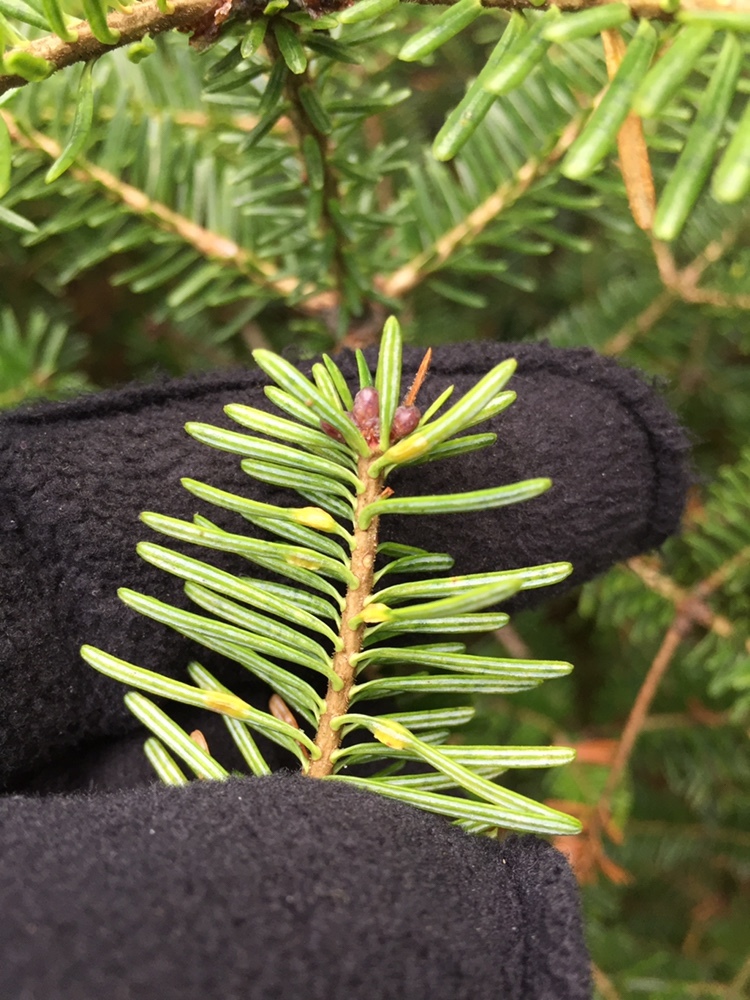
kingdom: Animalia
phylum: Arthropoda
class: Insecta
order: Diptera
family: Cecidomyiidae
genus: Paradiplosis
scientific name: Paradiplosis tumifex
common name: Gall midge
